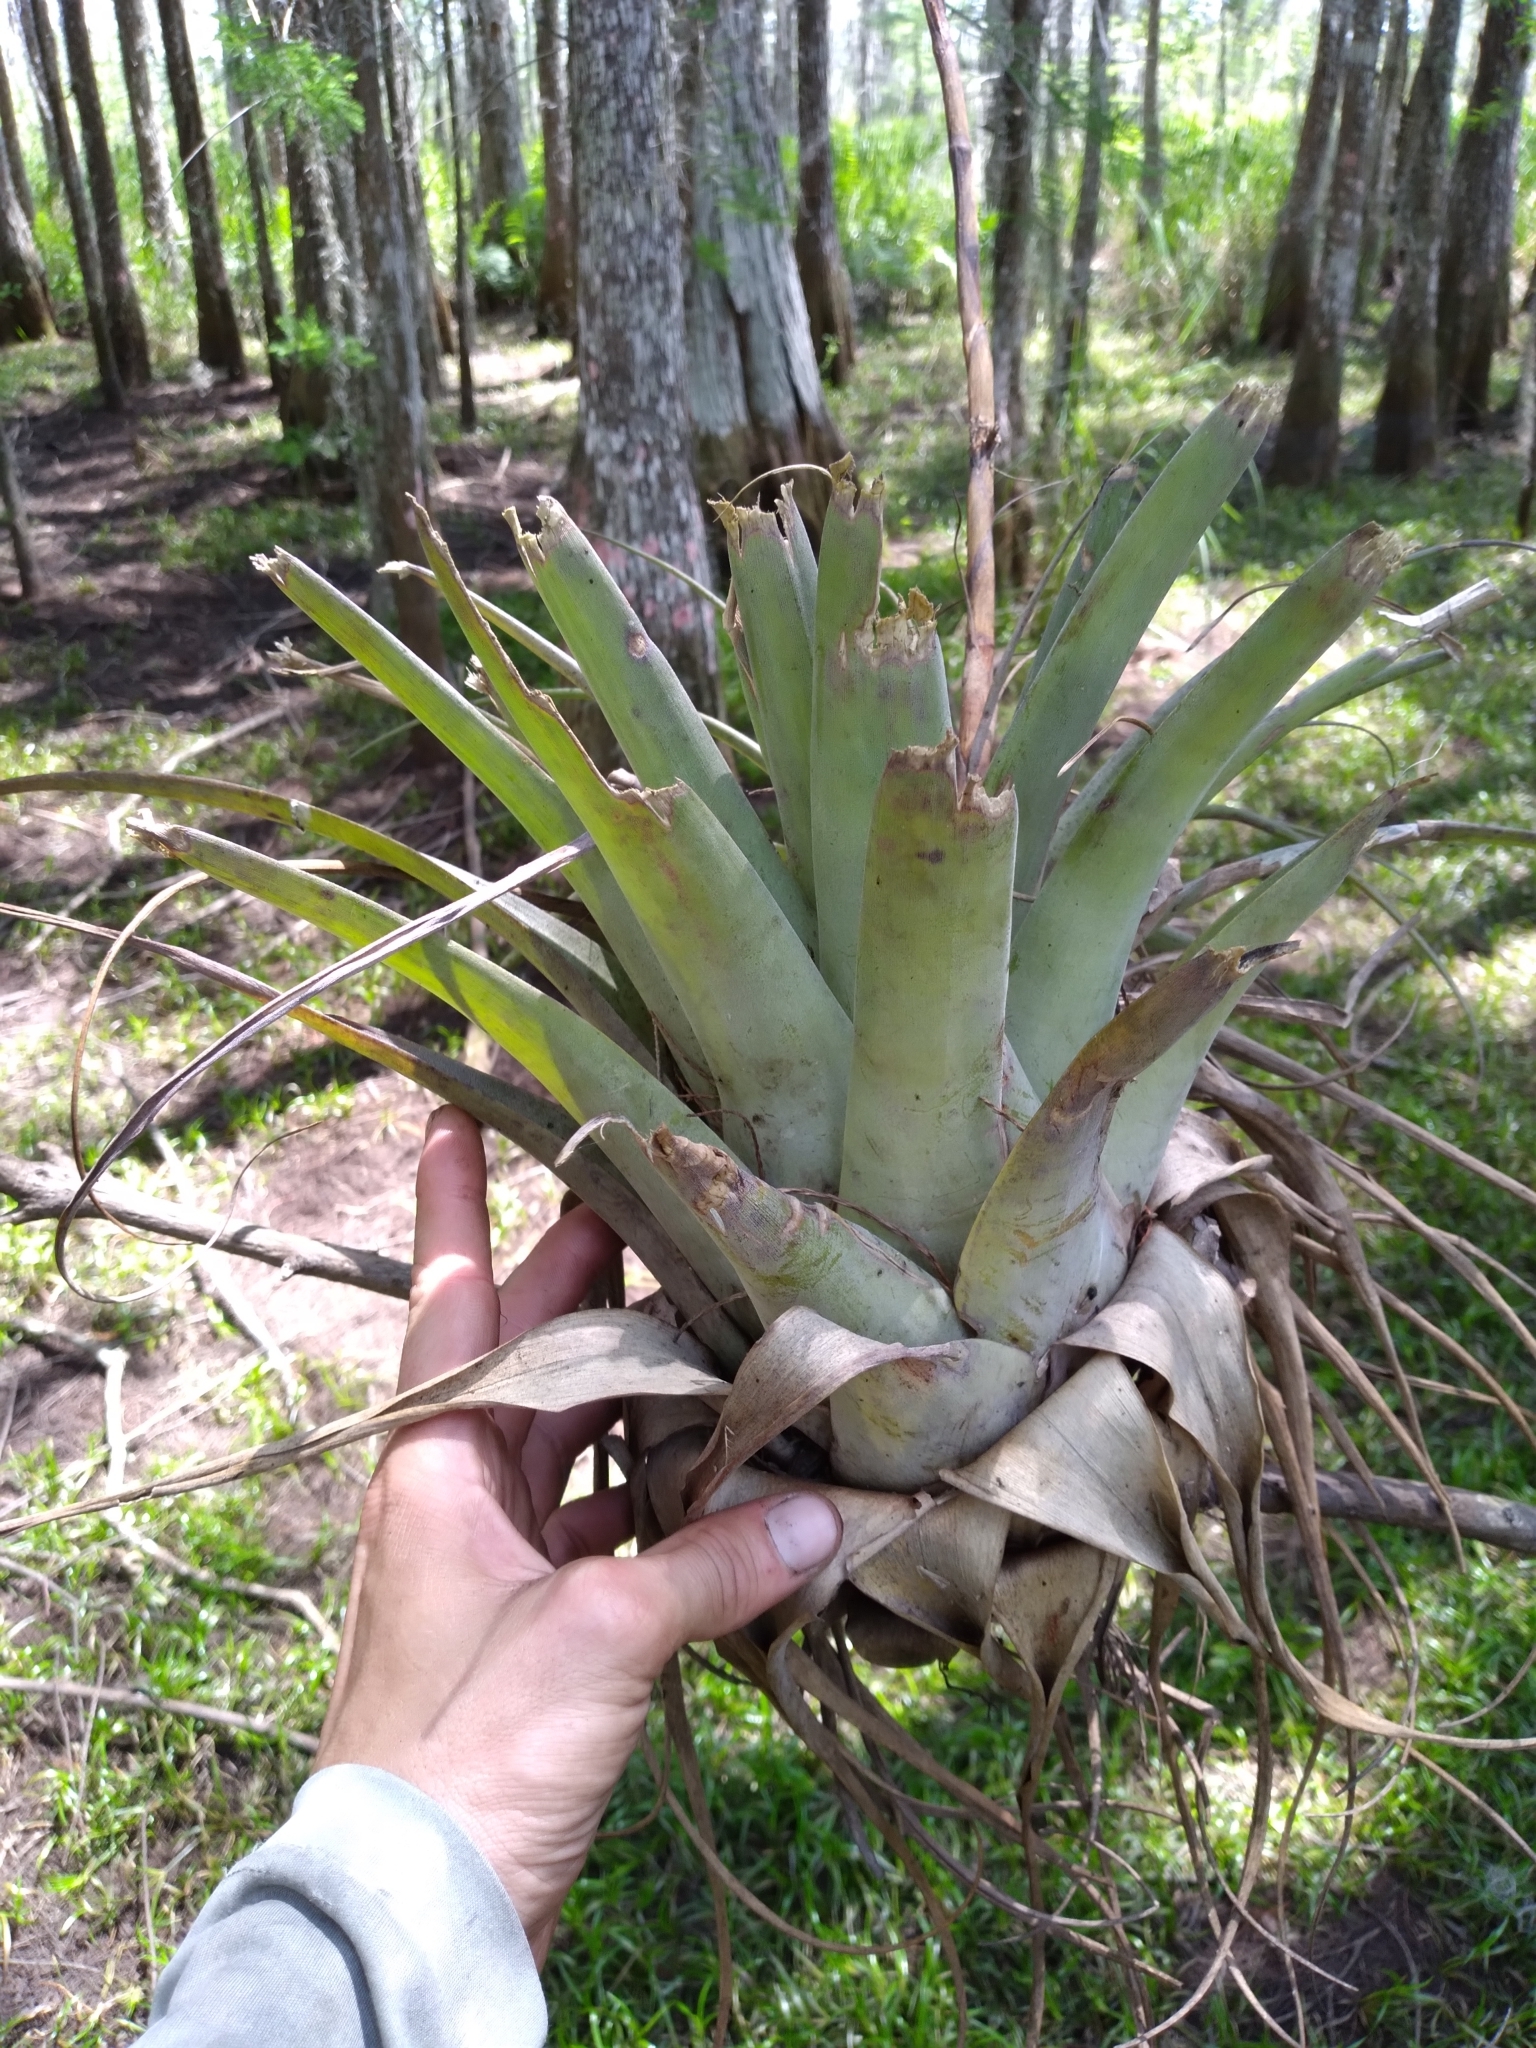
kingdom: Plantae
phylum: Tracheophyta
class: Liliopsida
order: Poales
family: Bromeliaceae
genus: Tillandsia
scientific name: Tillandsia utriculata
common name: Wild pine
